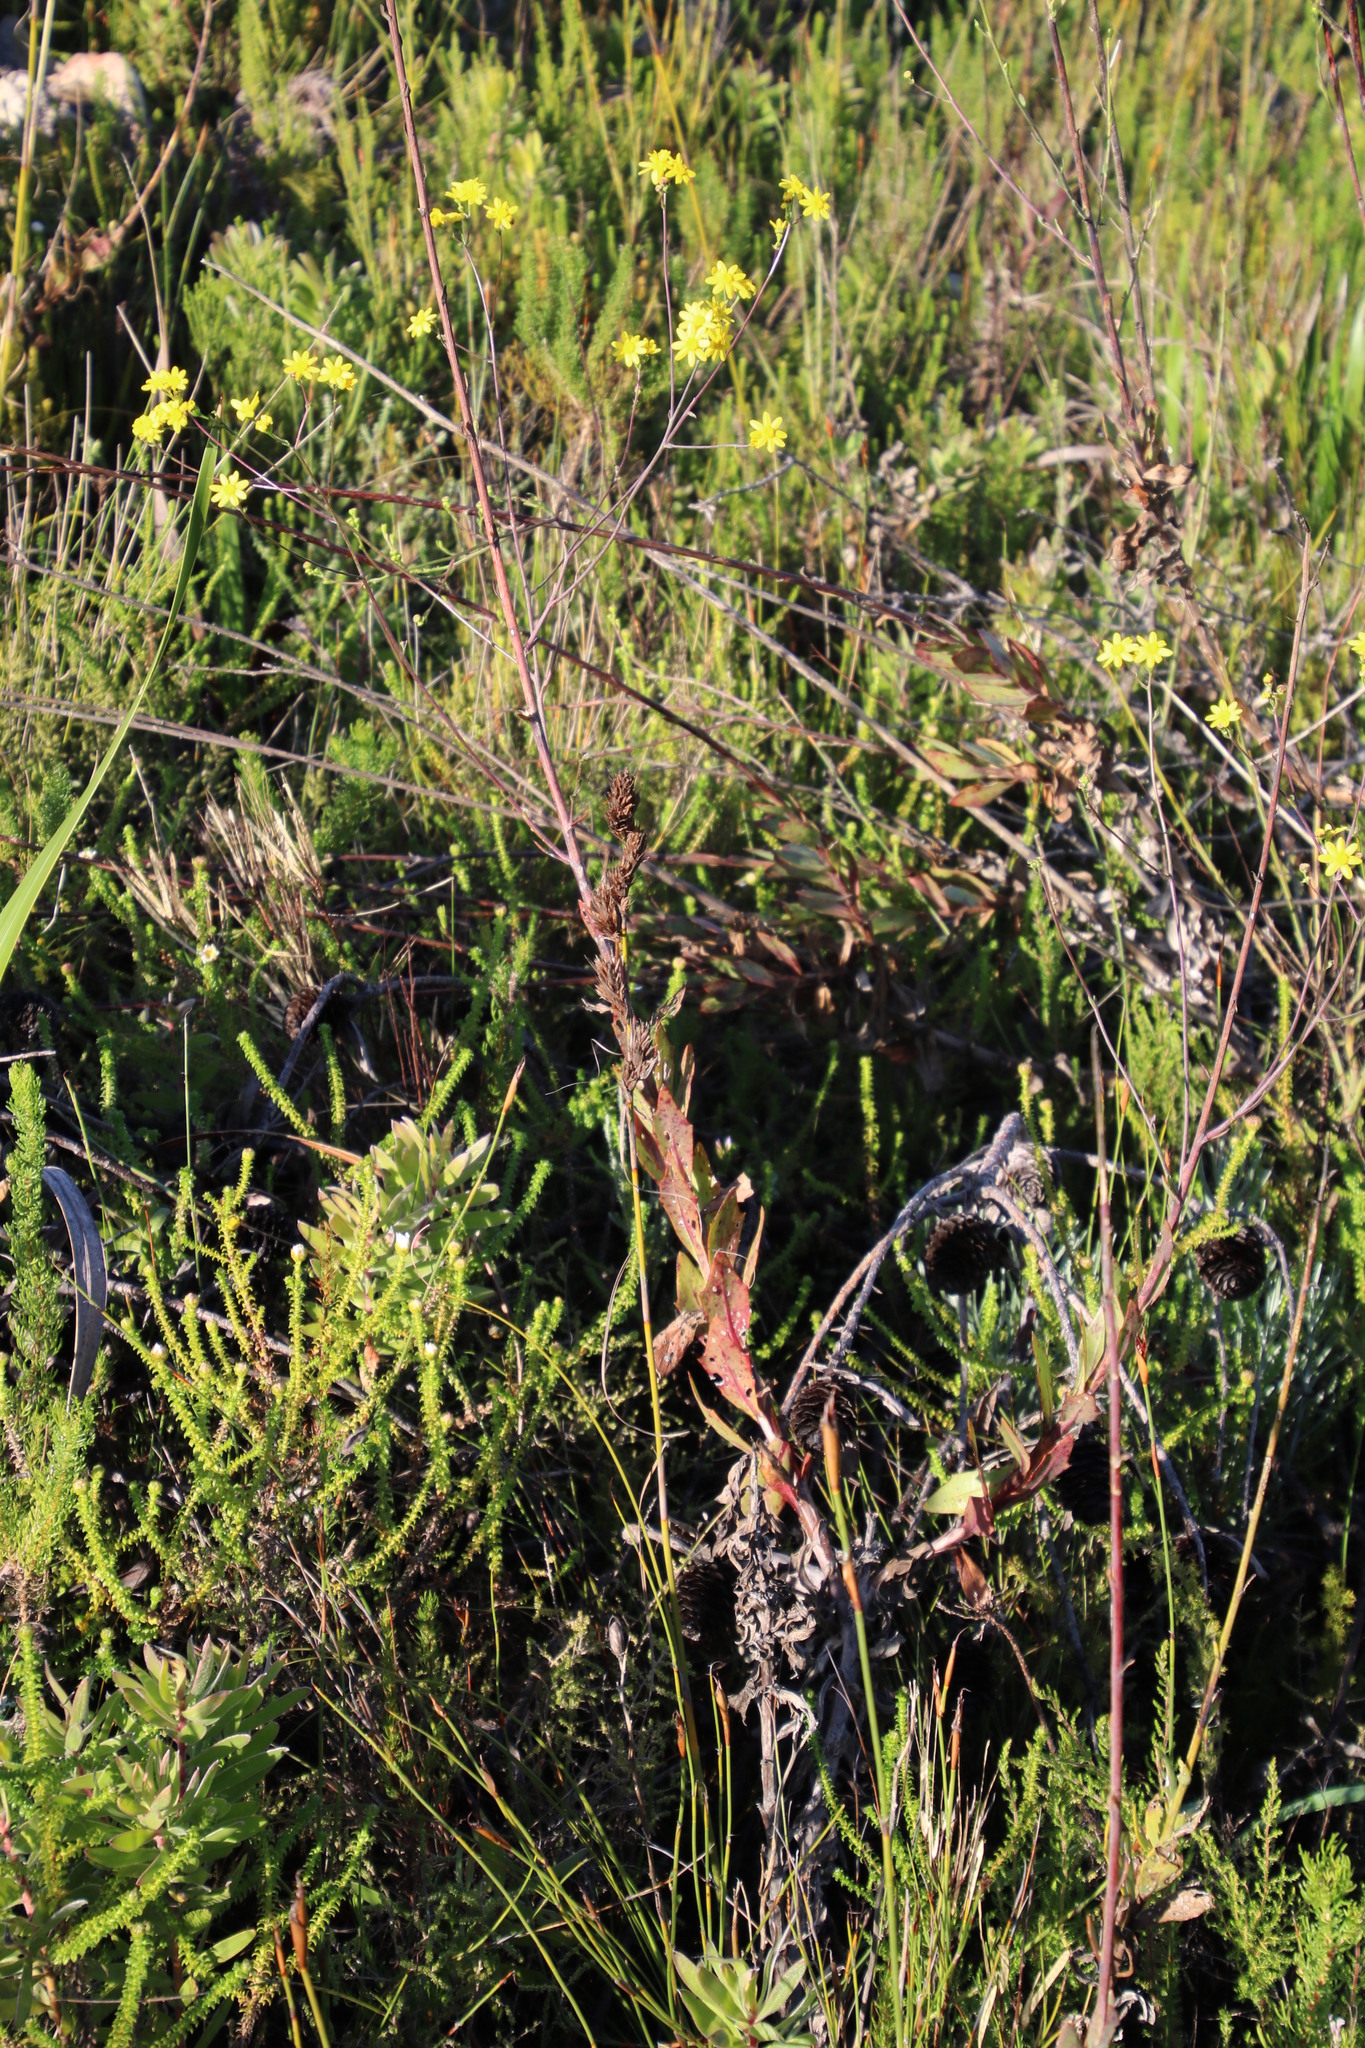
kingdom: Plantae
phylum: Tracheophyta
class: Magnoliopsida
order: Asterales
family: Asteraceae
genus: Othonna
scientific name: Othonna quinquedentata
